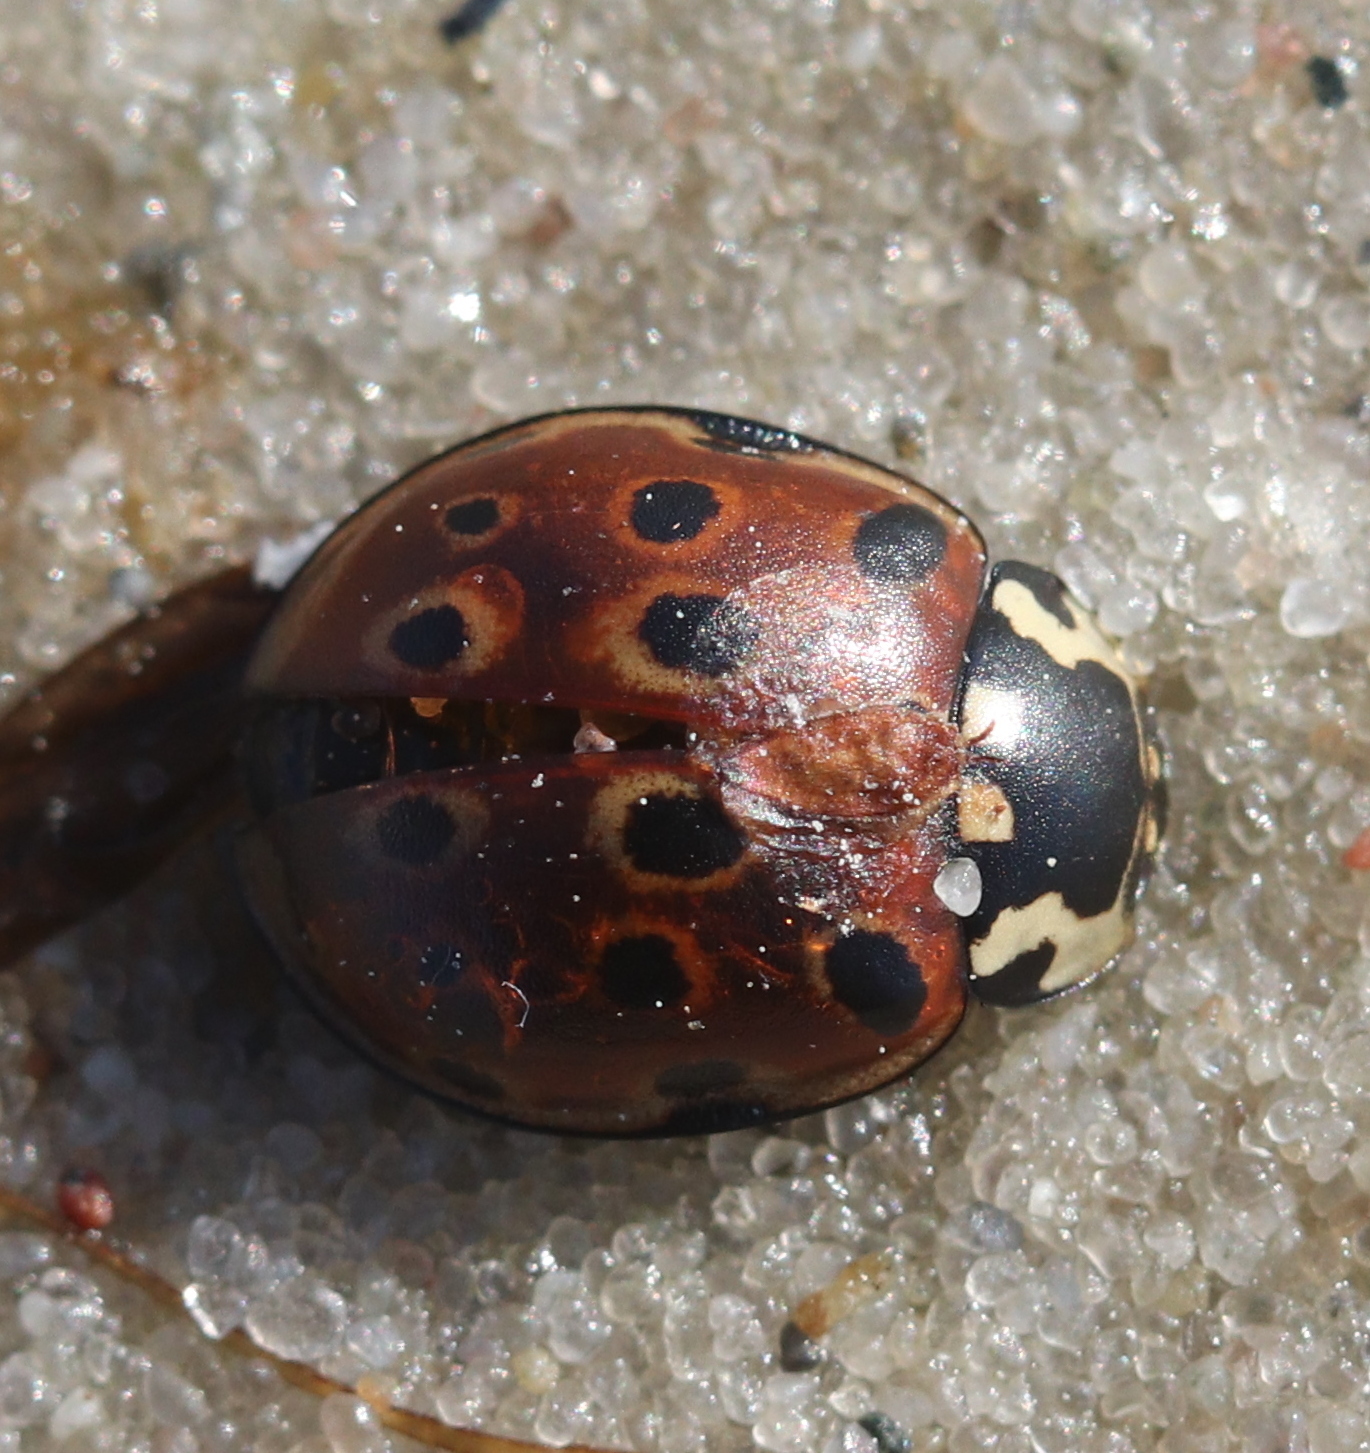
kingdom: Animalia
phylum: Arthropoda
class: Insecta
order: Coleoptera
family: Coccinellidae
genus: Anatis
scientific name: Anatis ocellata
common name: Eyed ladybird
